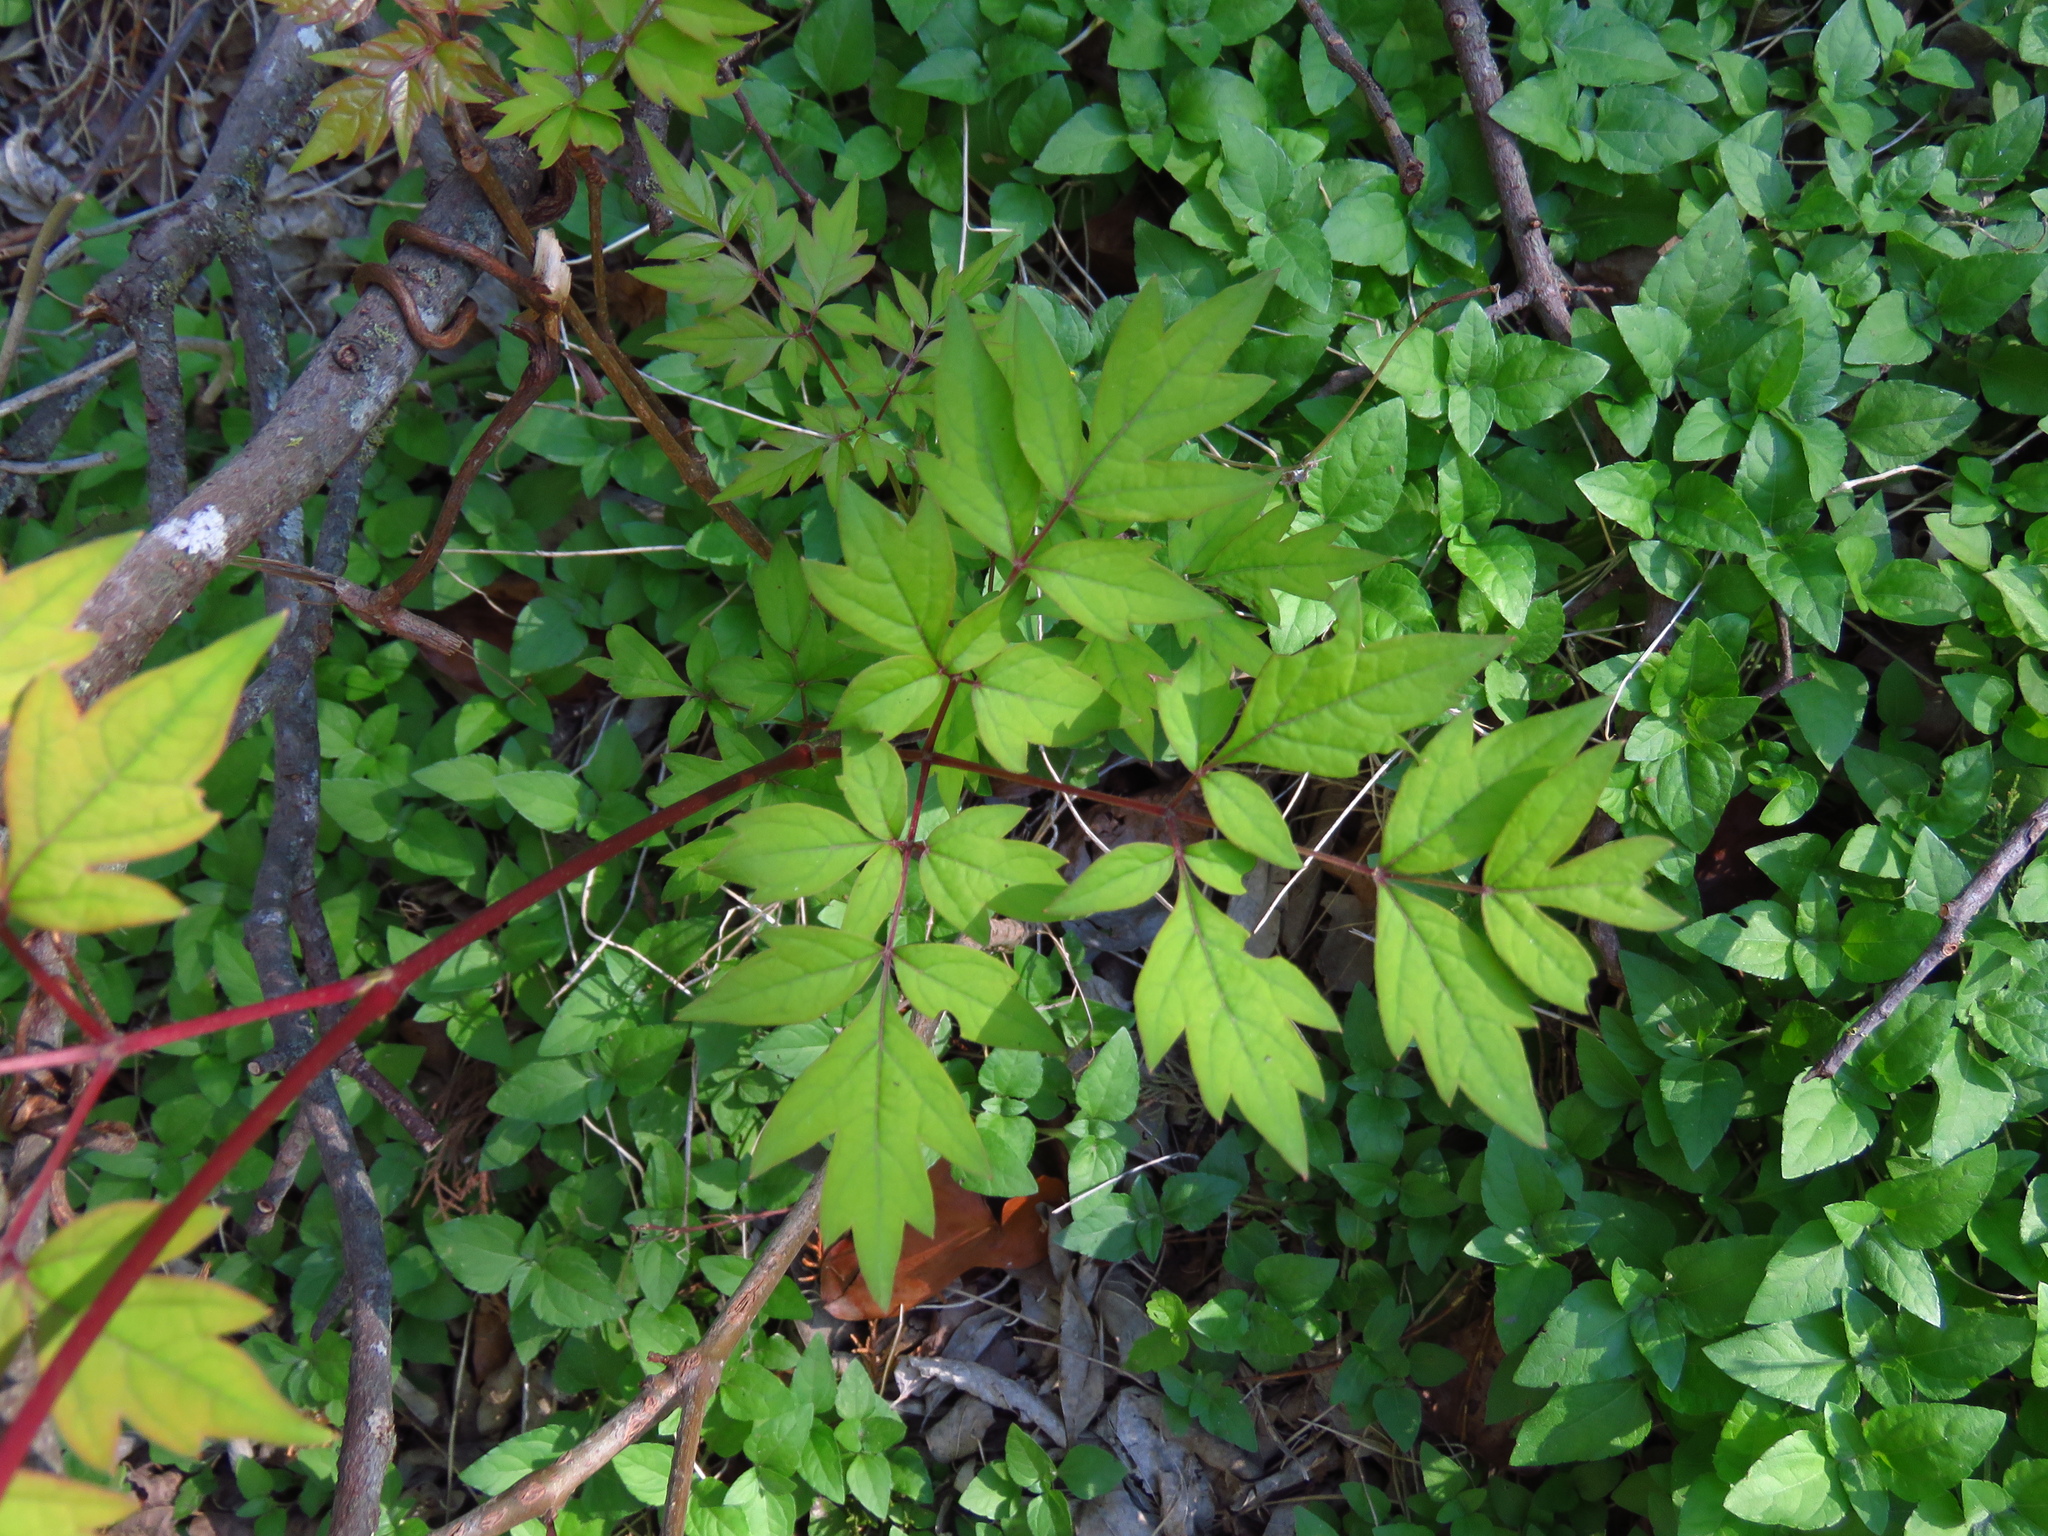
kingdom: Plantae
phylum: Tracheophyta
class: Magnoliopsida
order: Vitales
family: Vitaceae
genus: Nekemias
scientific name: Nekemias arborea
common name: Peppervine
